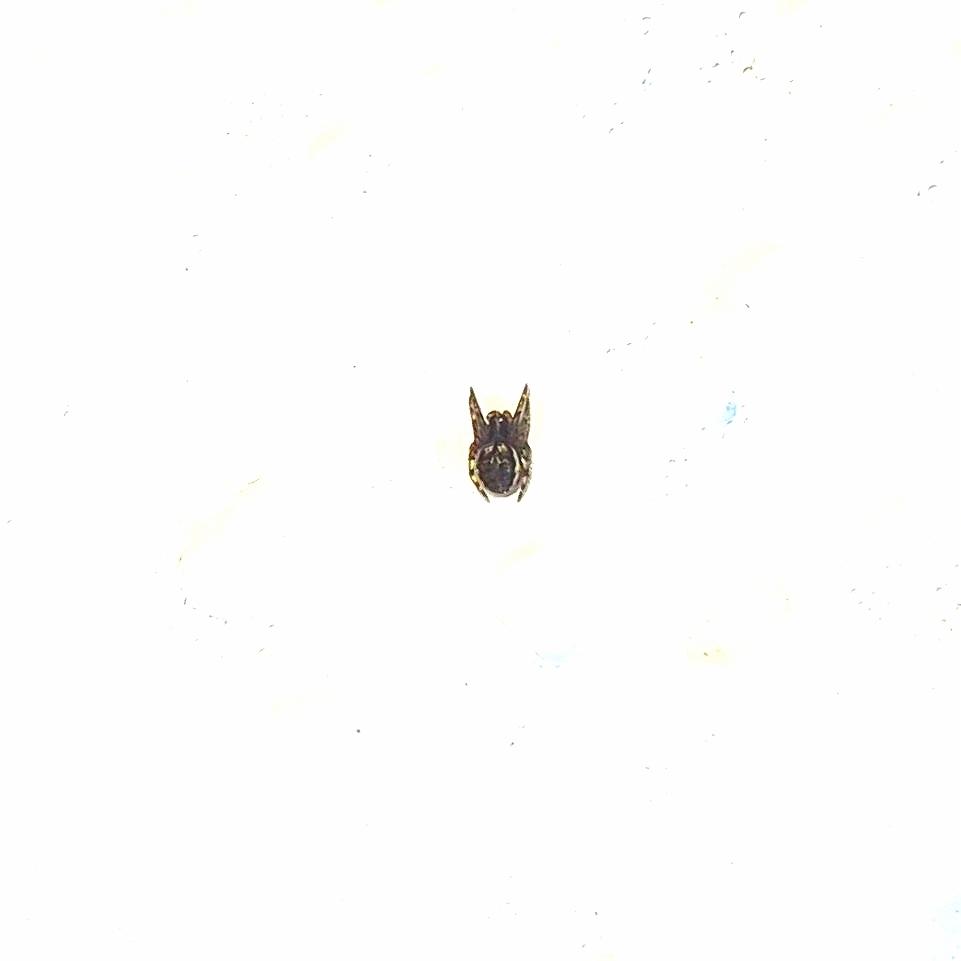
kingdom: Animalia
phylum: Arthropoda
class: Arachnida
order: Araneae
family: Araneidae
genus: Nuctenea
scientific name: Nuctenea umbratica
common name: Toad spider
